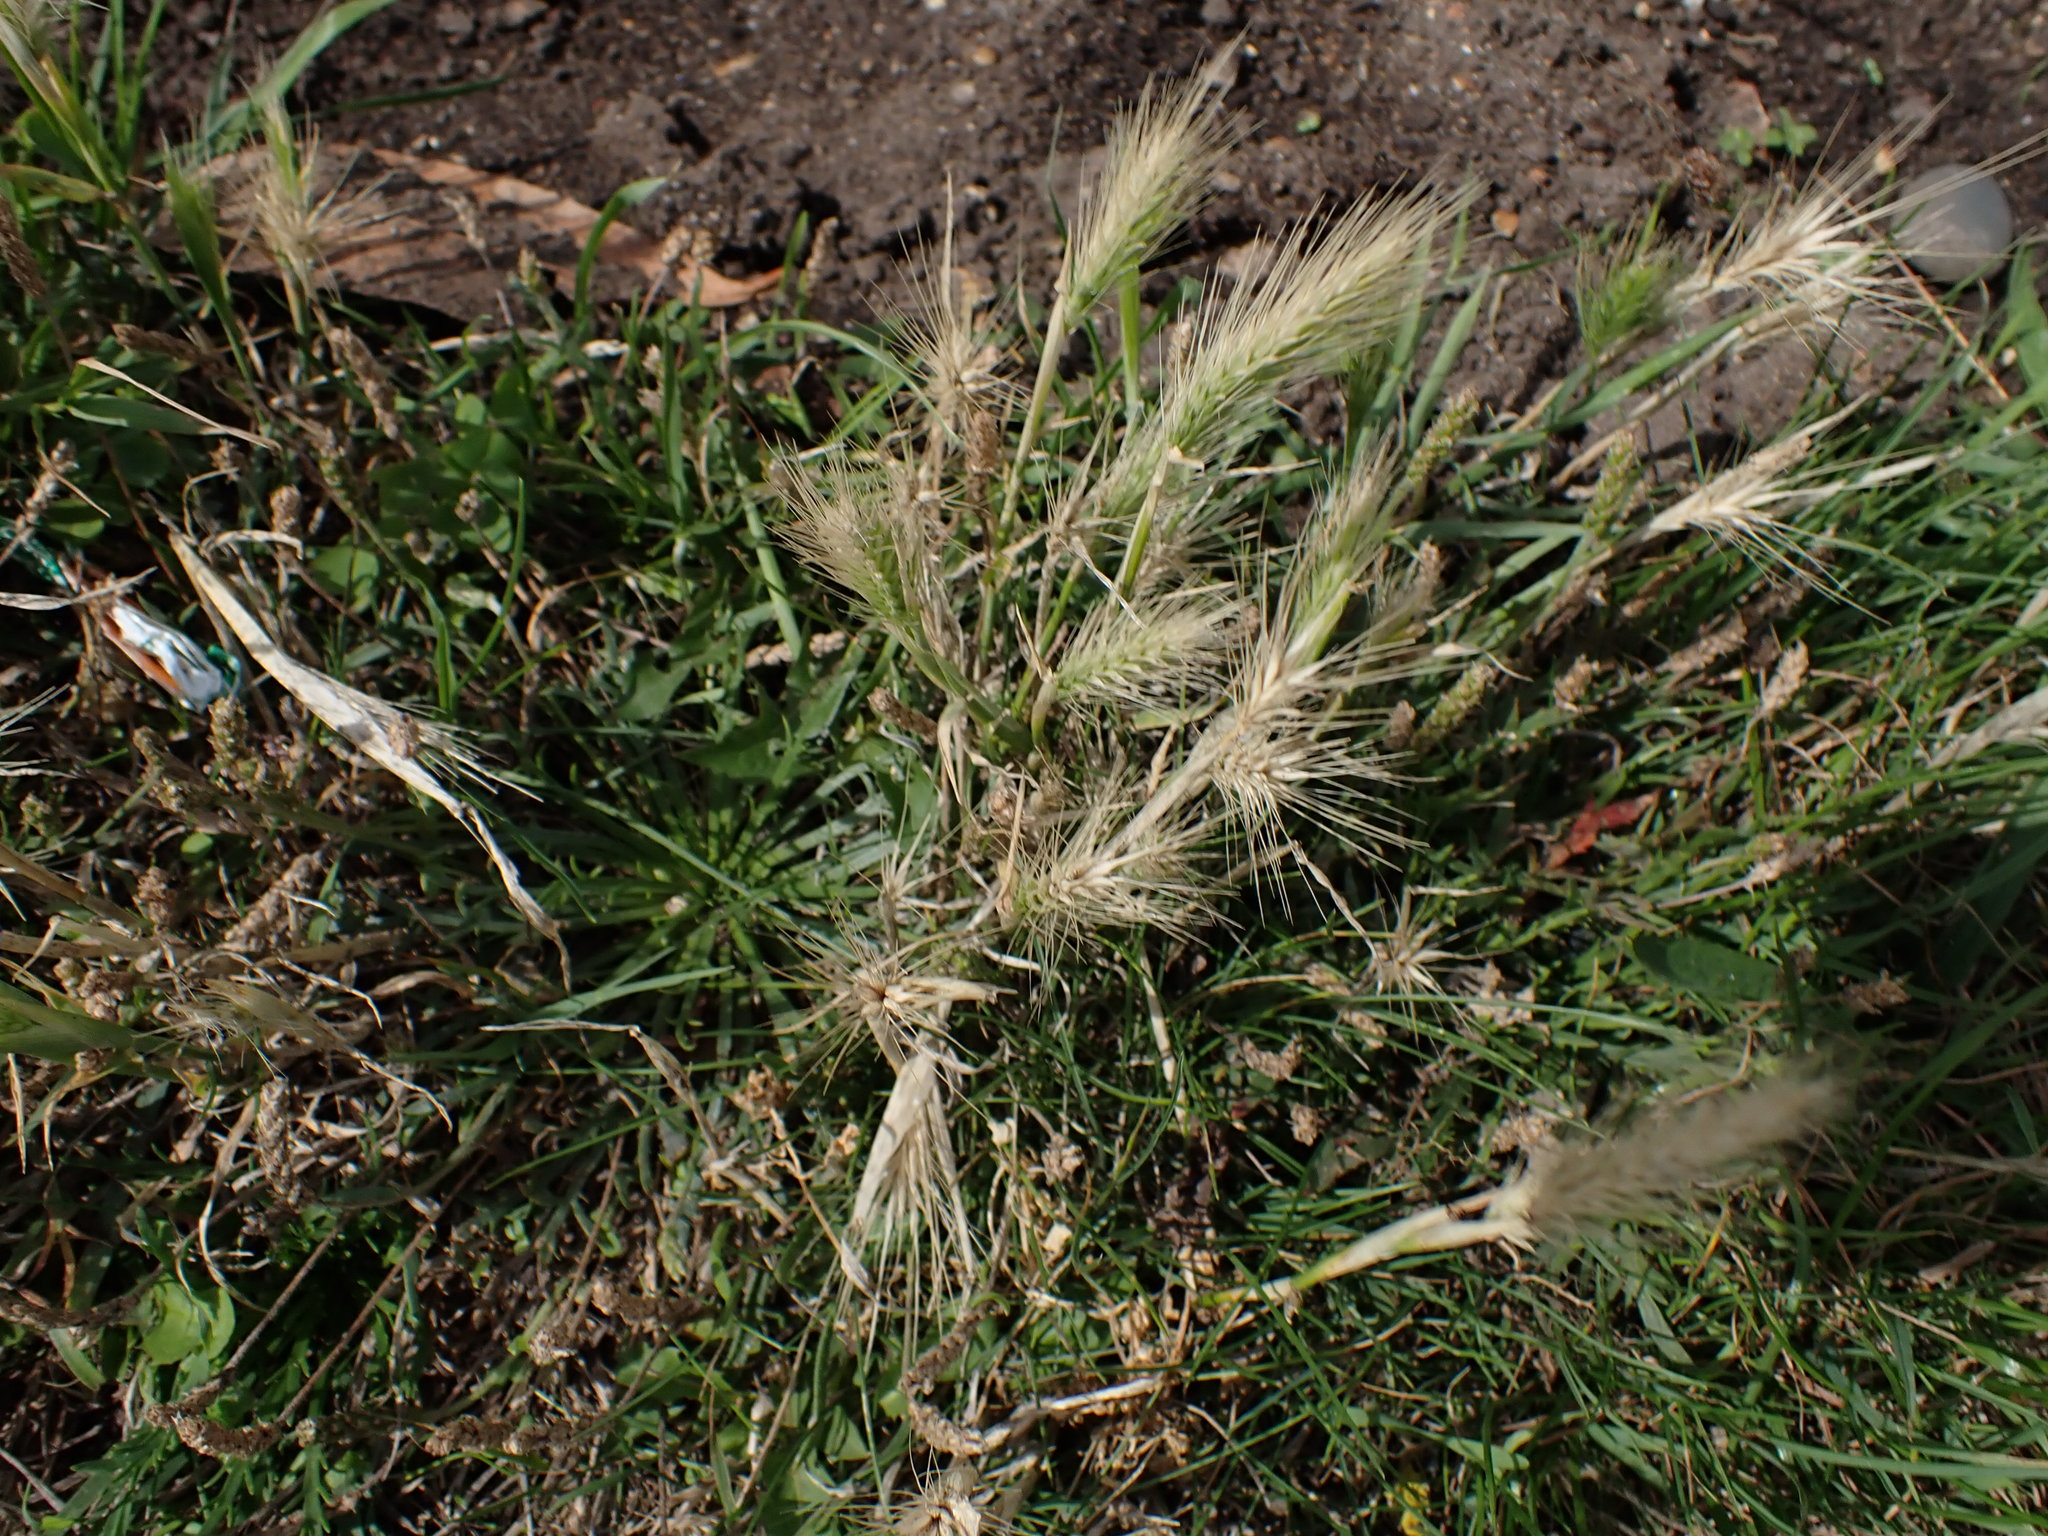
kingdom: Plantae
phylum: Tracheophyta
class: Liliopsida
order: Poales
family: Poaceae
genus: Hordeum
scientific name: Hordeum murinum
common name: Wall barley
